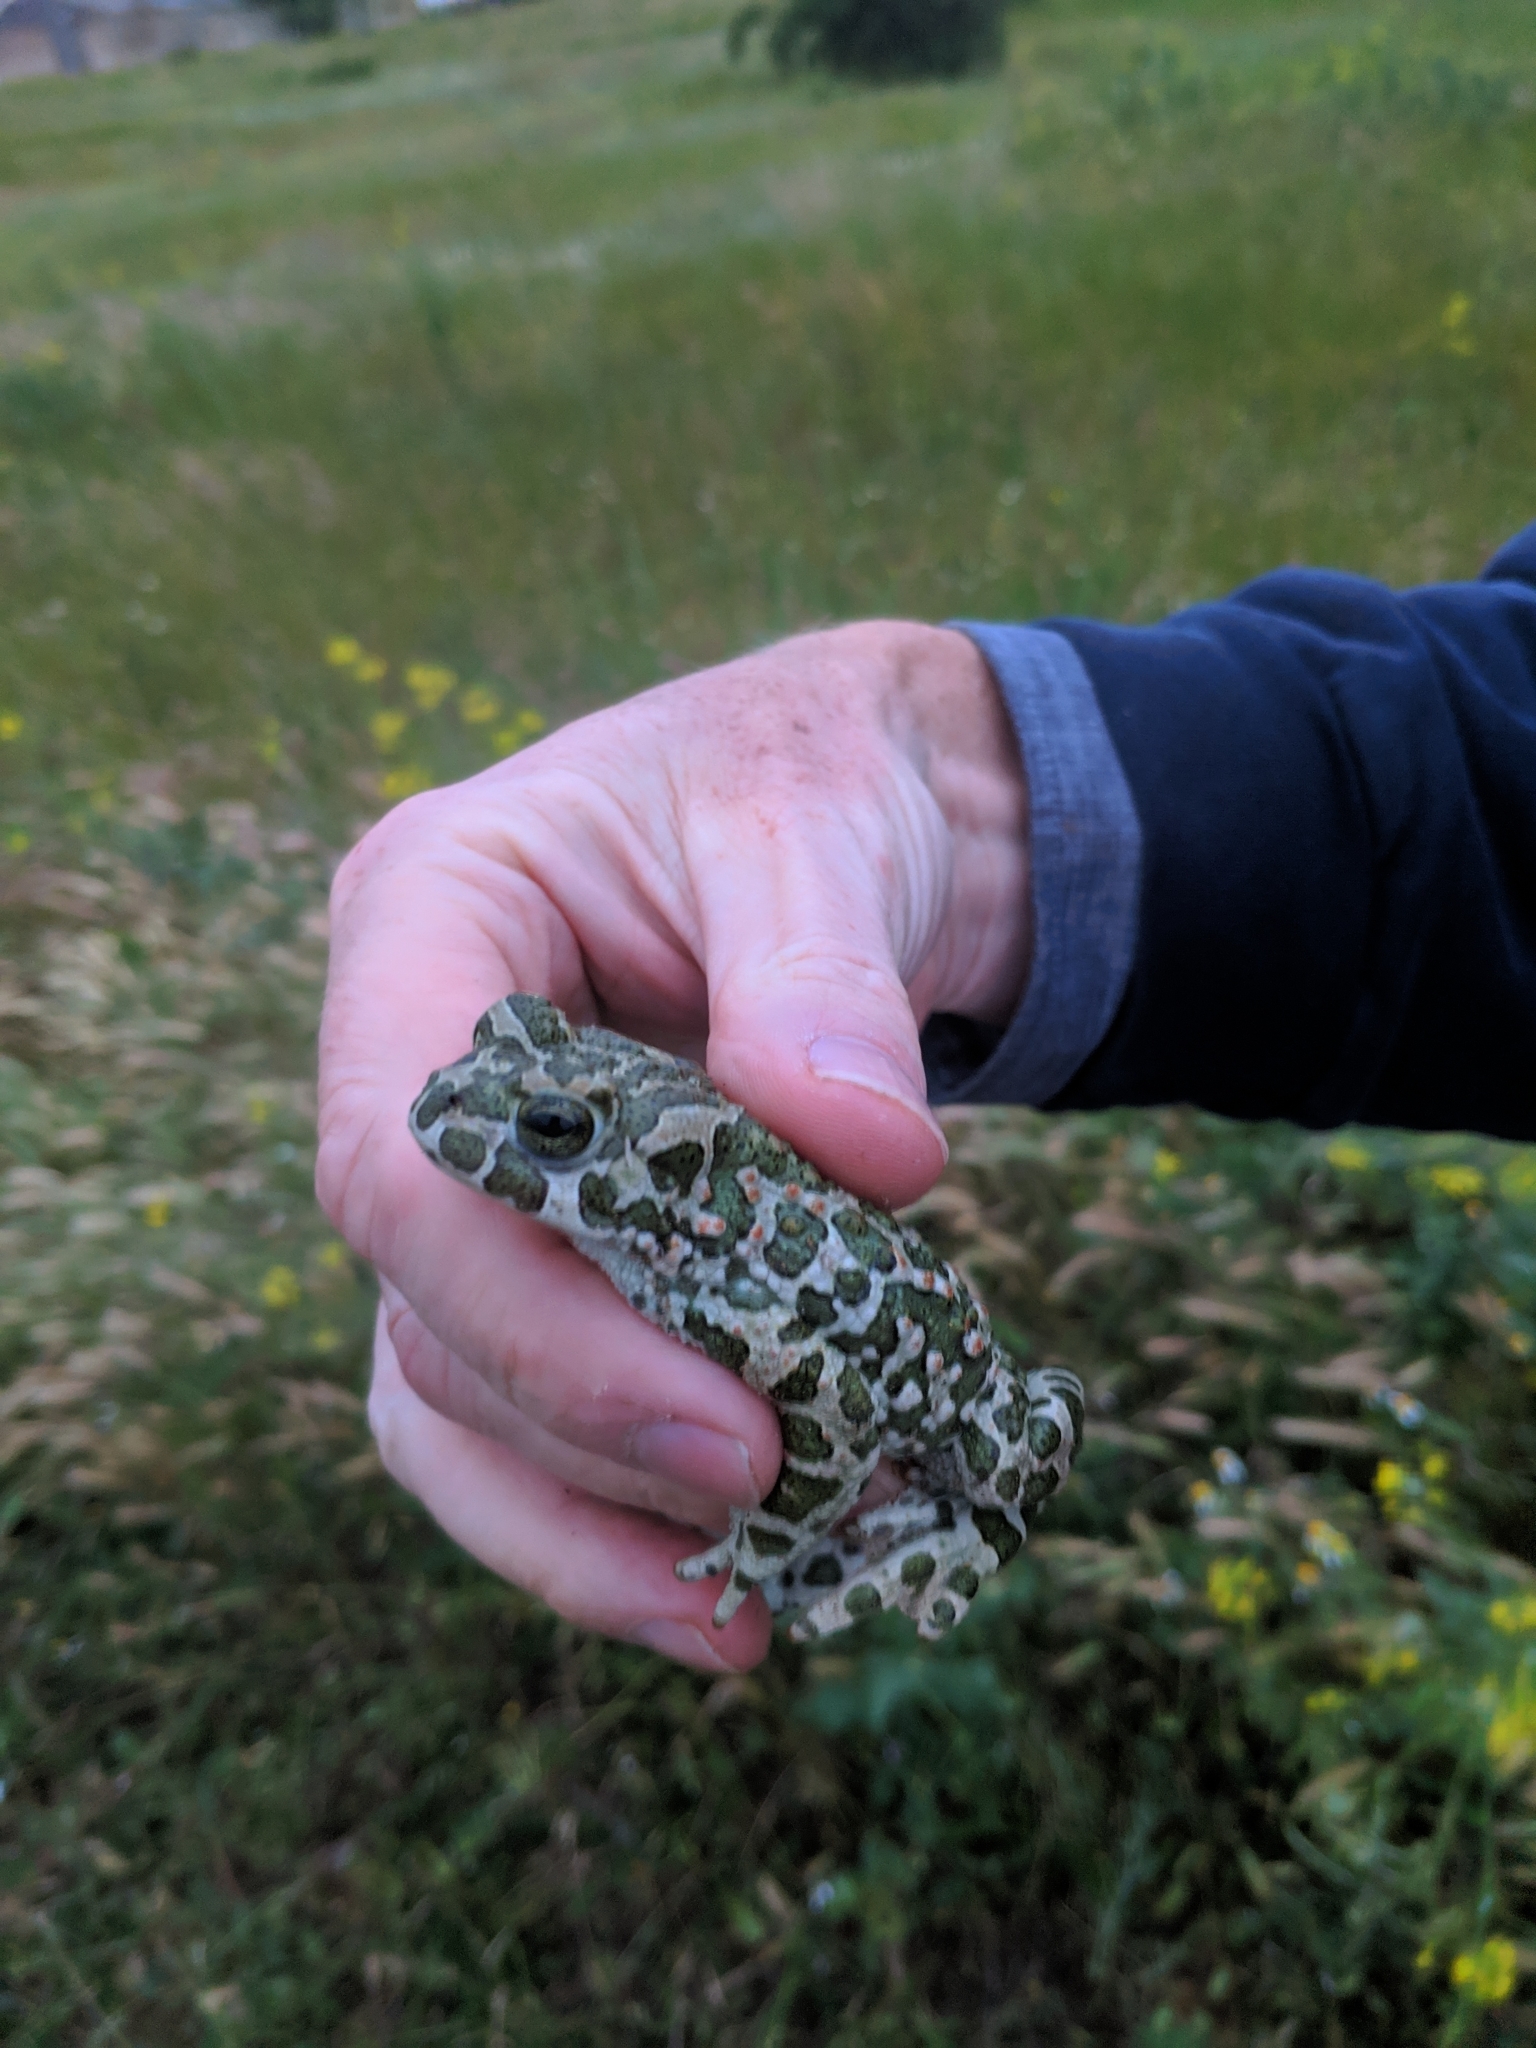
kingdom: Animalia
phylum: Chordata
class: Amphibia
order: Anura
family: Bufonidae
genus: Bufotes
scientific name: Bufotes viridis
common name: European green toad
